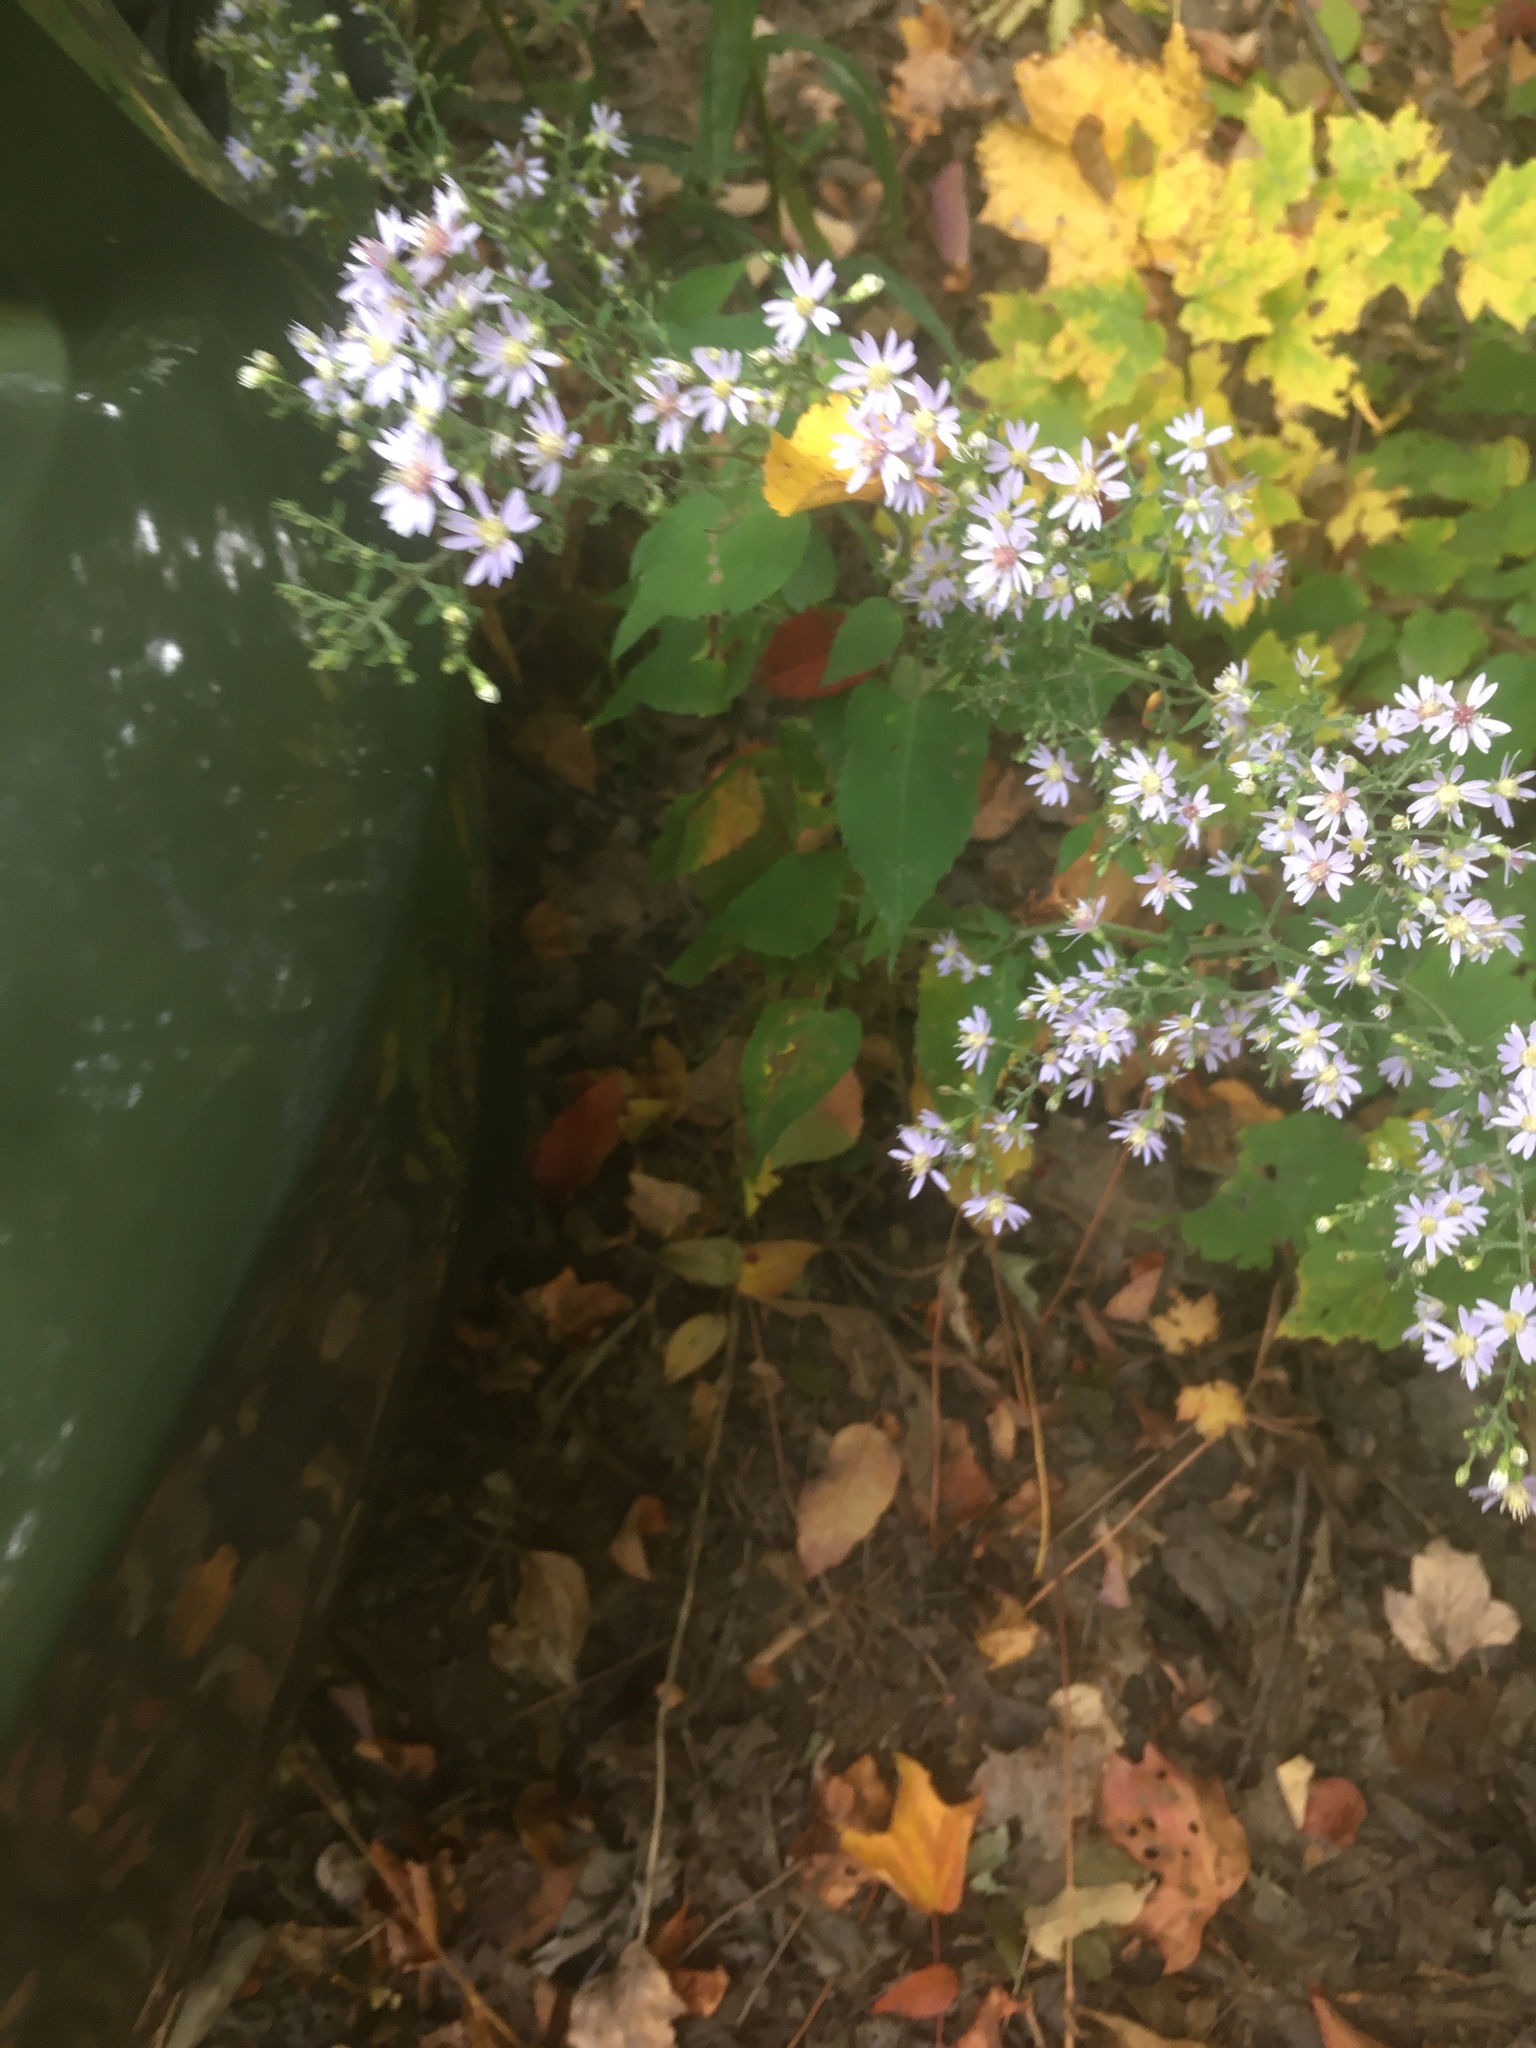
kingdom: Plantae
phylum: Tracheophyta
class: Magnoliopsida
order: Asterales
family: Asteraceae
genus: Symphyotrichum
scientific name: Symphyotrichum cordifolium
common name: Beeweed
